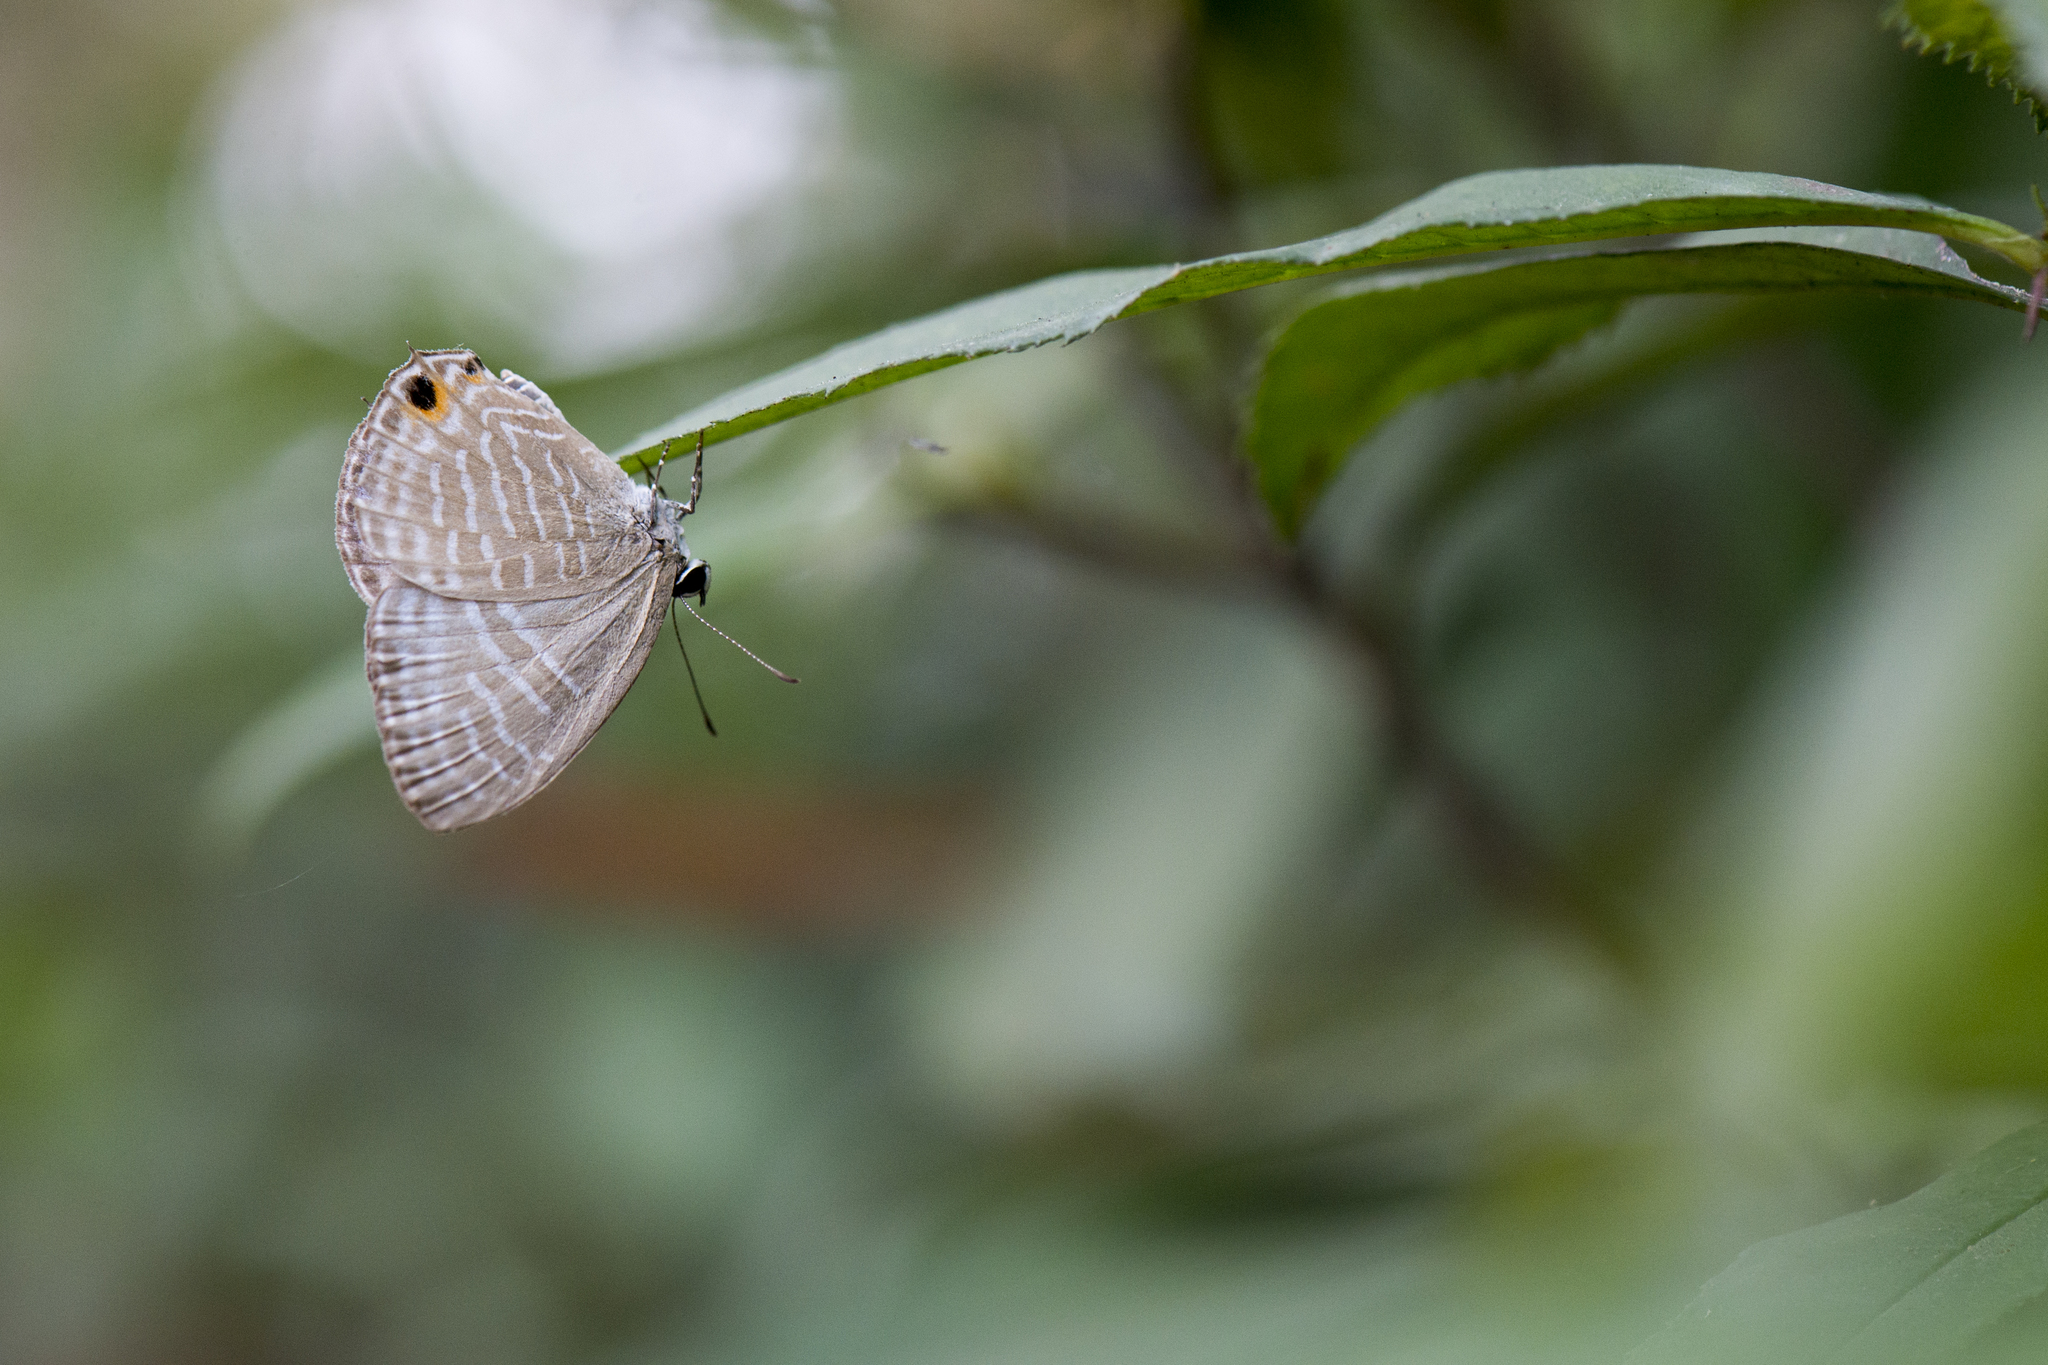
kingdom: Animalia
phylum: Arthropoda
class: Insecta
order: Lepidoptera
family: Lycaenidae
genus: Jamides
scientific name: Jamides alecto
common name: Metallic cerulean
